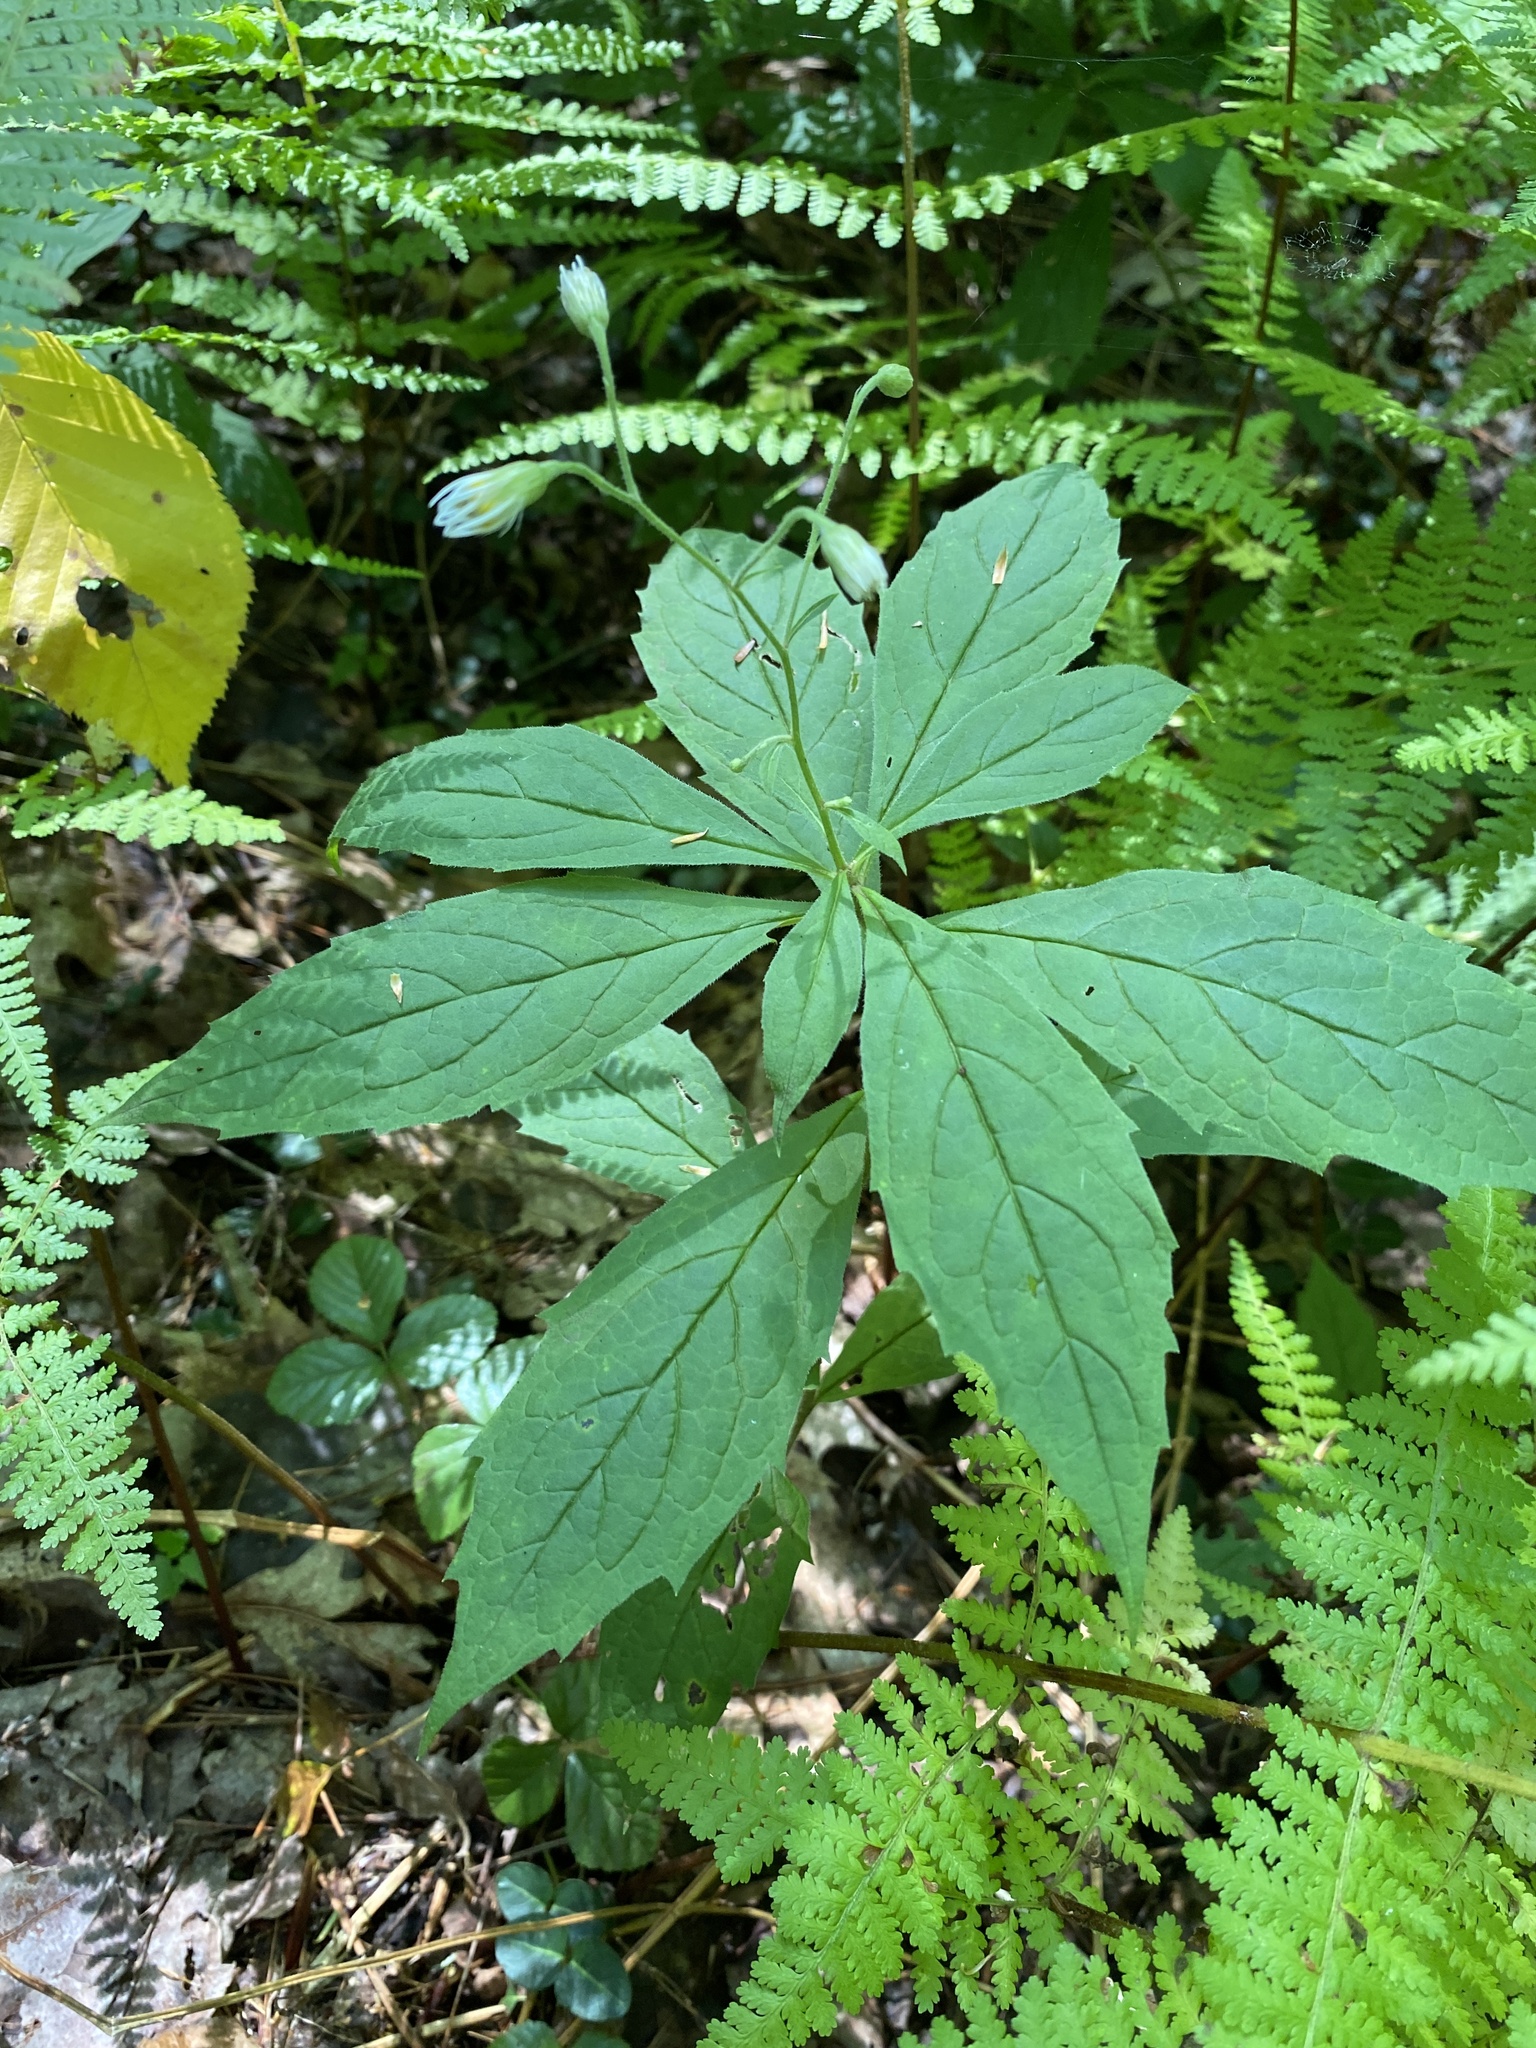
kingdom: Plantae
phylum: Tracheophyta
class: Magnoliopsida
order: Asterales
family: Asteraceae
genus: Oclemena
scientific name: Oclemena acuminata
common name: Mountain aster
